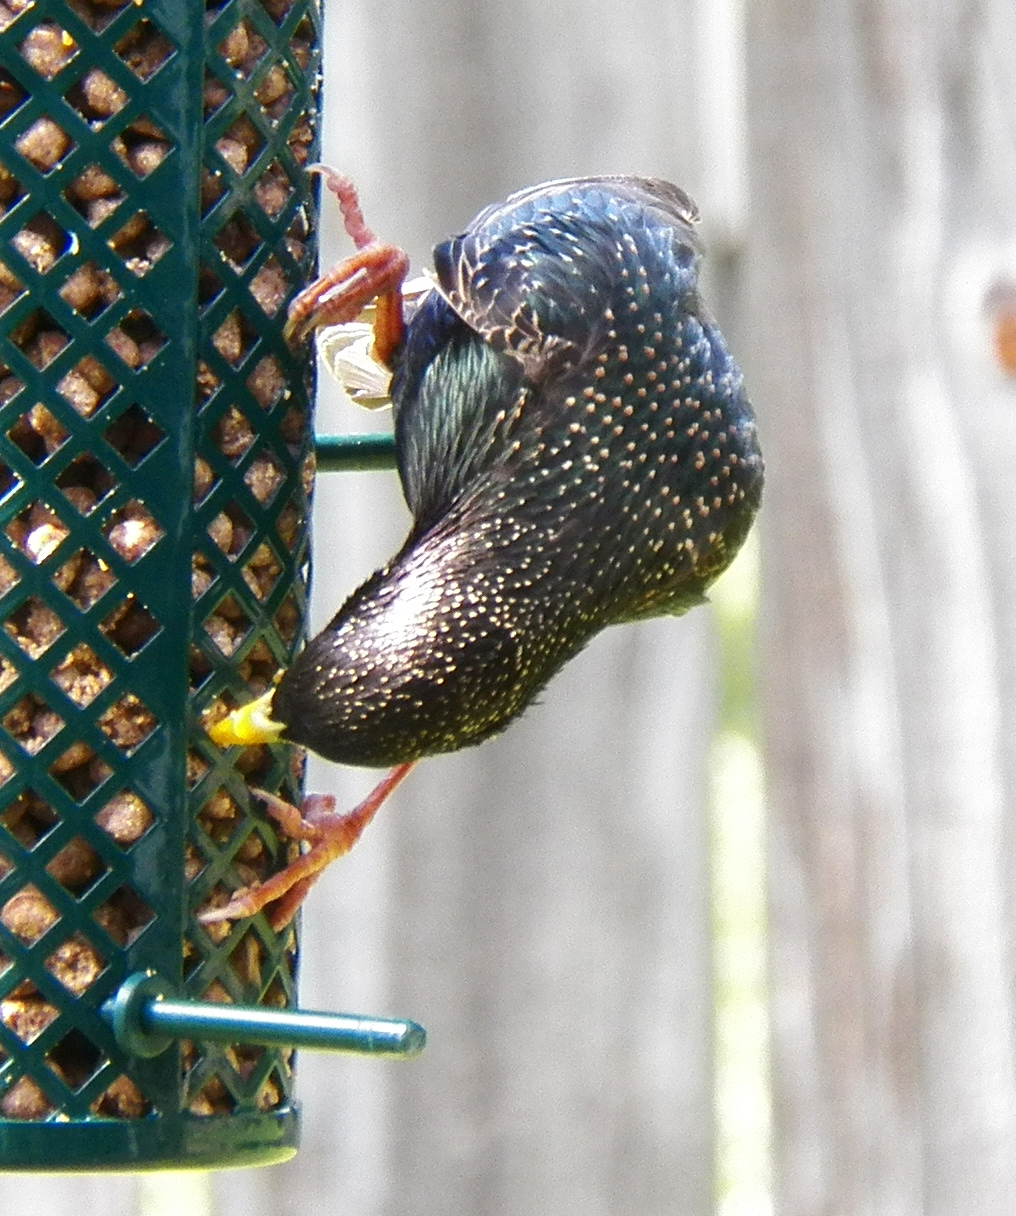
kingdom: Animalia
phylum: Chordata
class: Aves
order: Passeriformes
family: Sturnidae
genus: Sturnus
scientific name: Sturnus vulgaris
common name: Common starling
